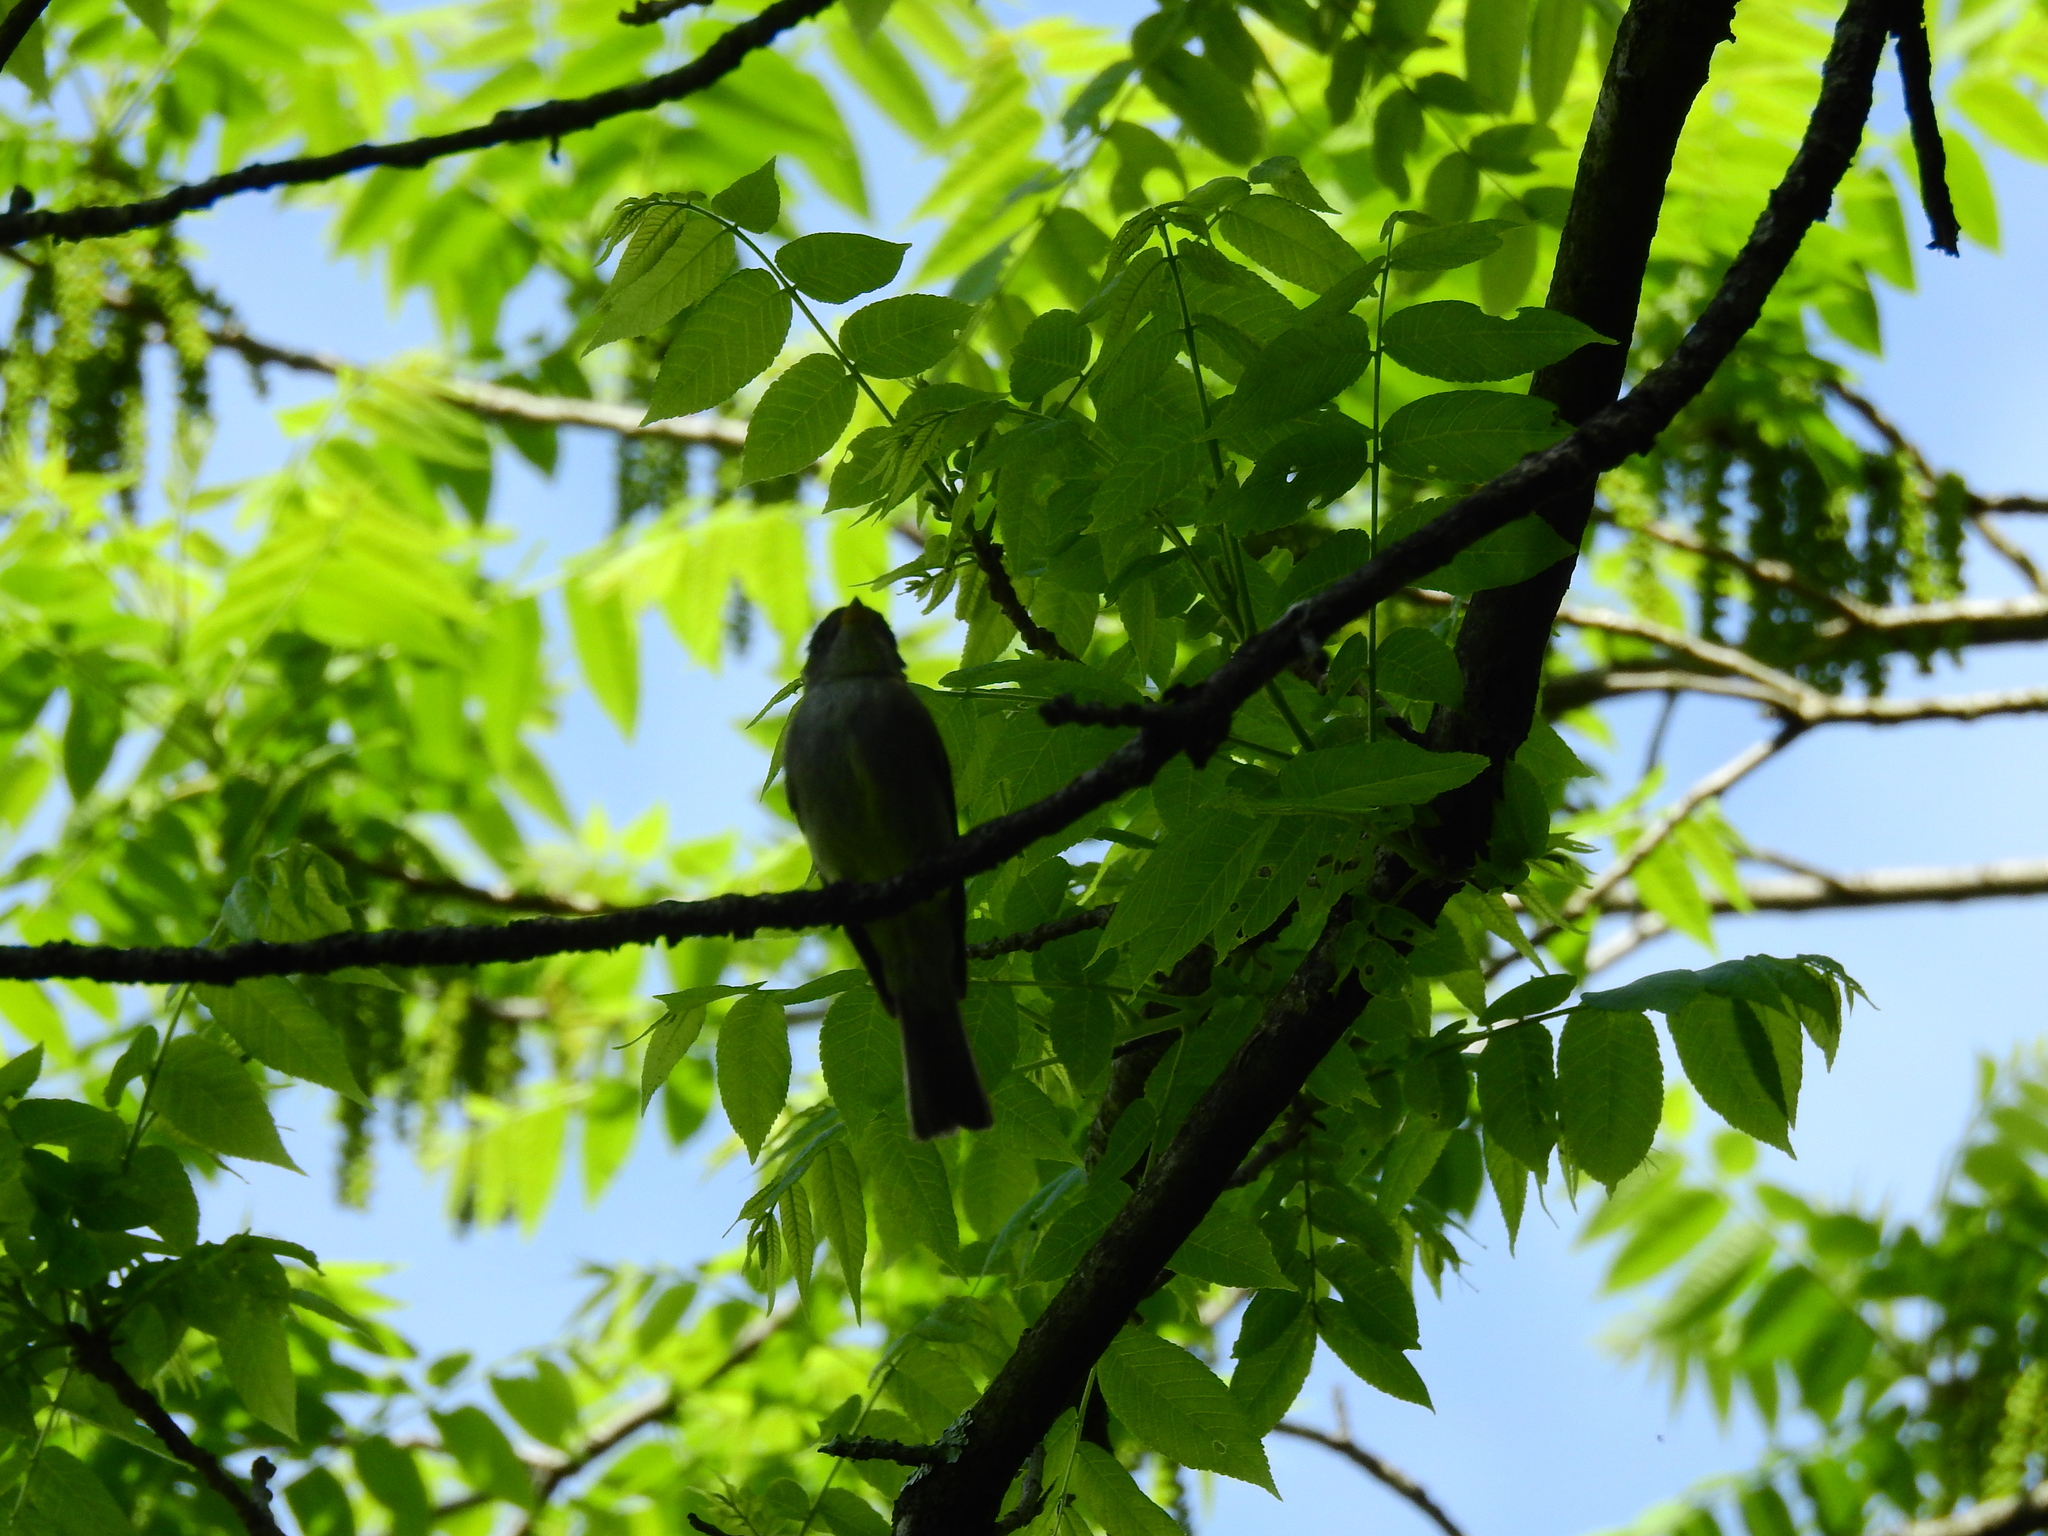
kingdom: Animalia
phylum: Chordata
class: Aves
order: Passeriformes
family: Tyrannidae
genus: Contopus
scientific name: Contopus virens
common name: Eastern wood-pewee
